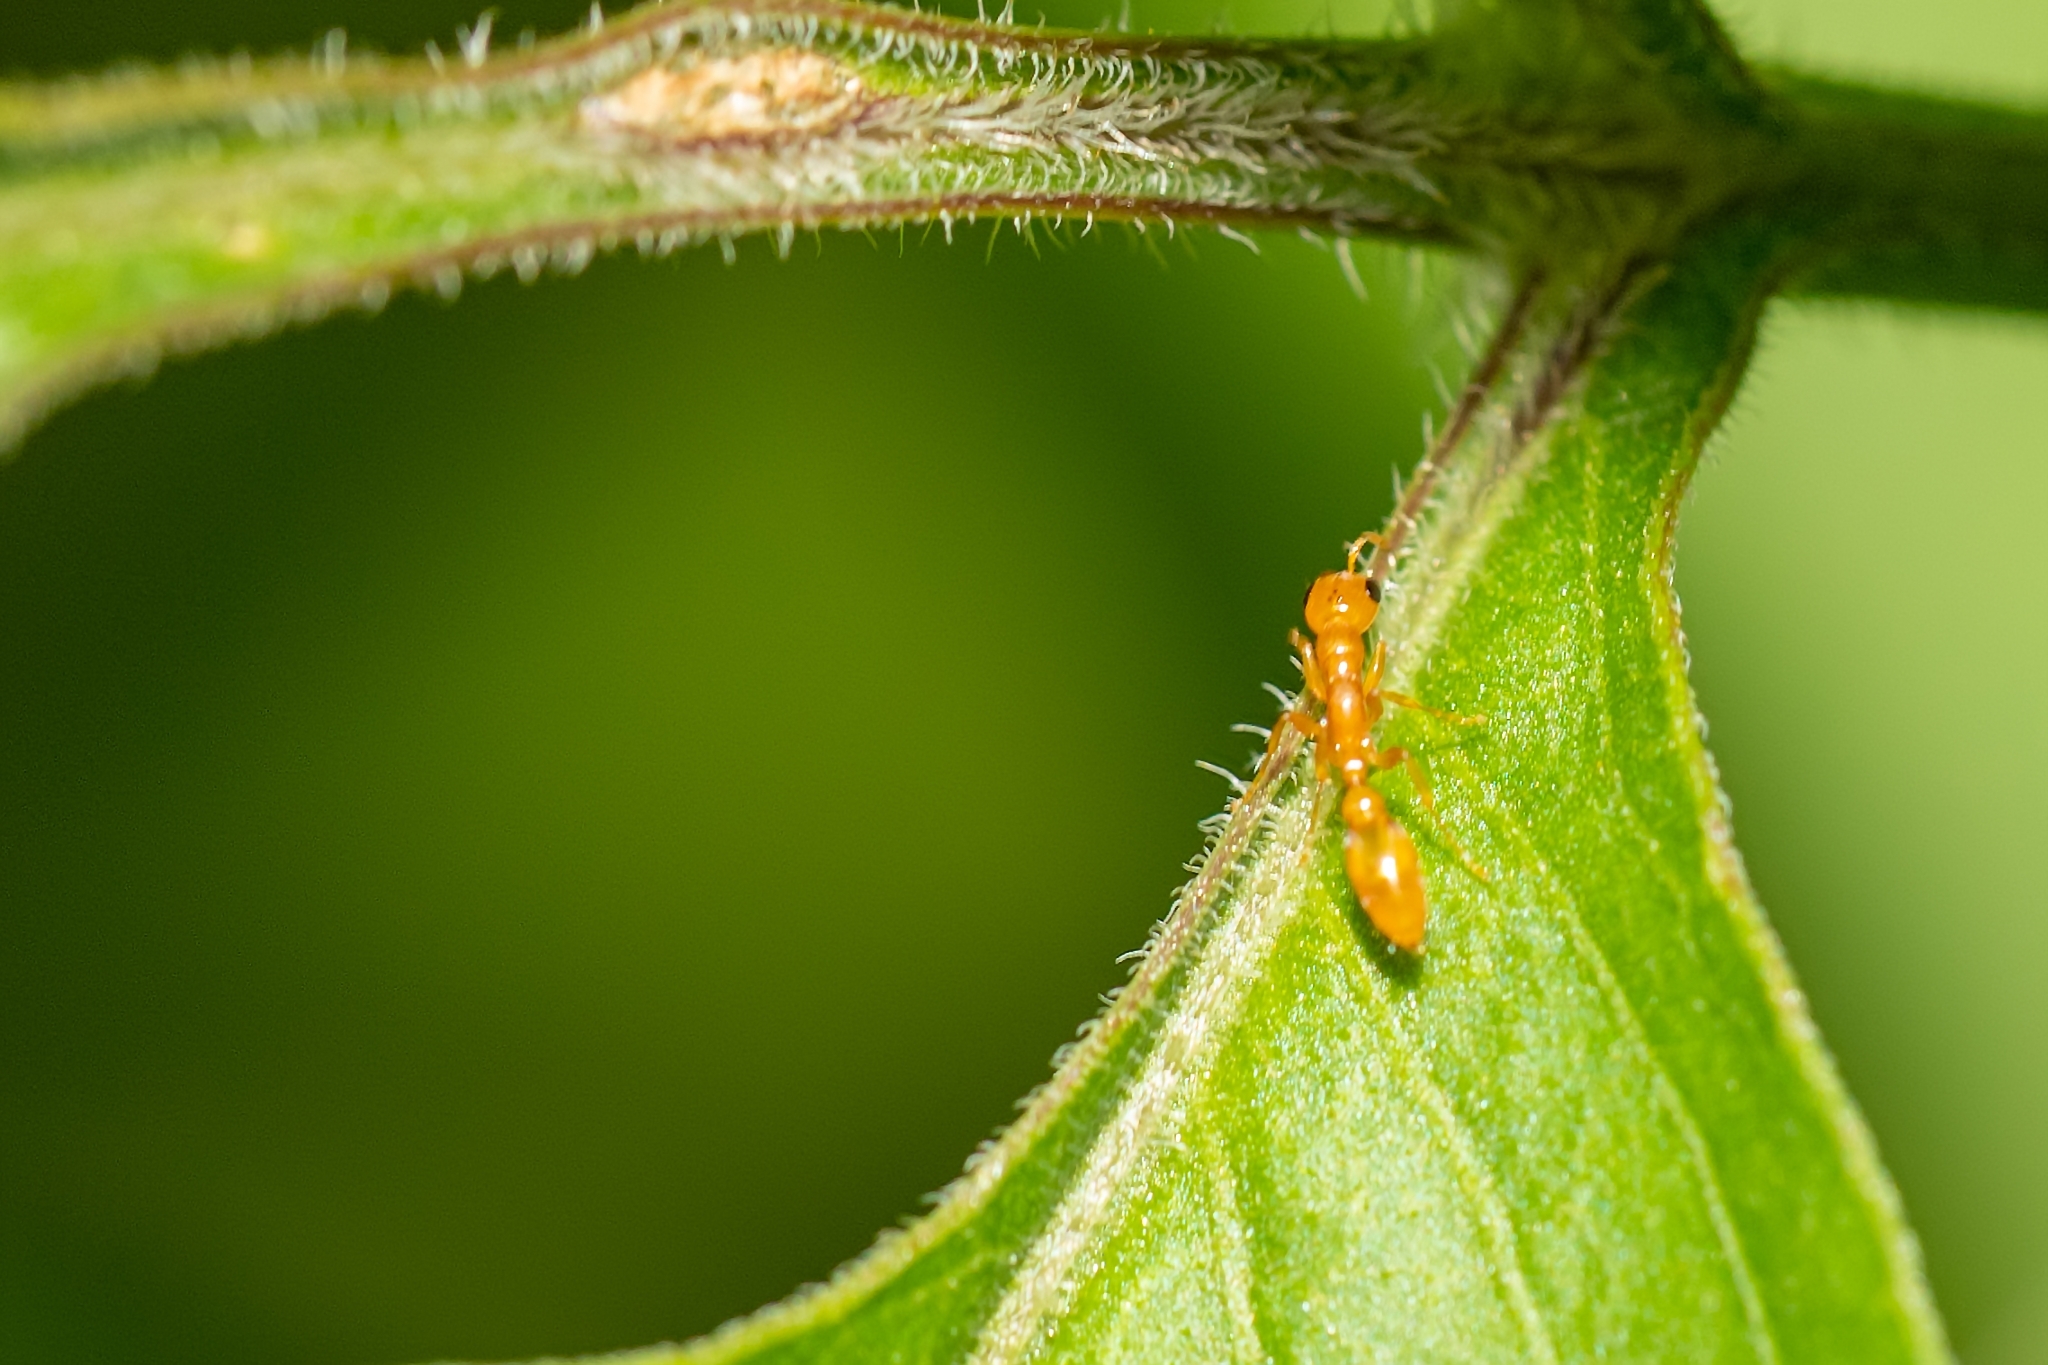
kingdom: Animalia
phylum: Arthropoda
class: Insecta
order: Hymenoptera
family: Formicidae
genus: Pseudomyrmex
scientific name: Pseudomyrmex pallidus
